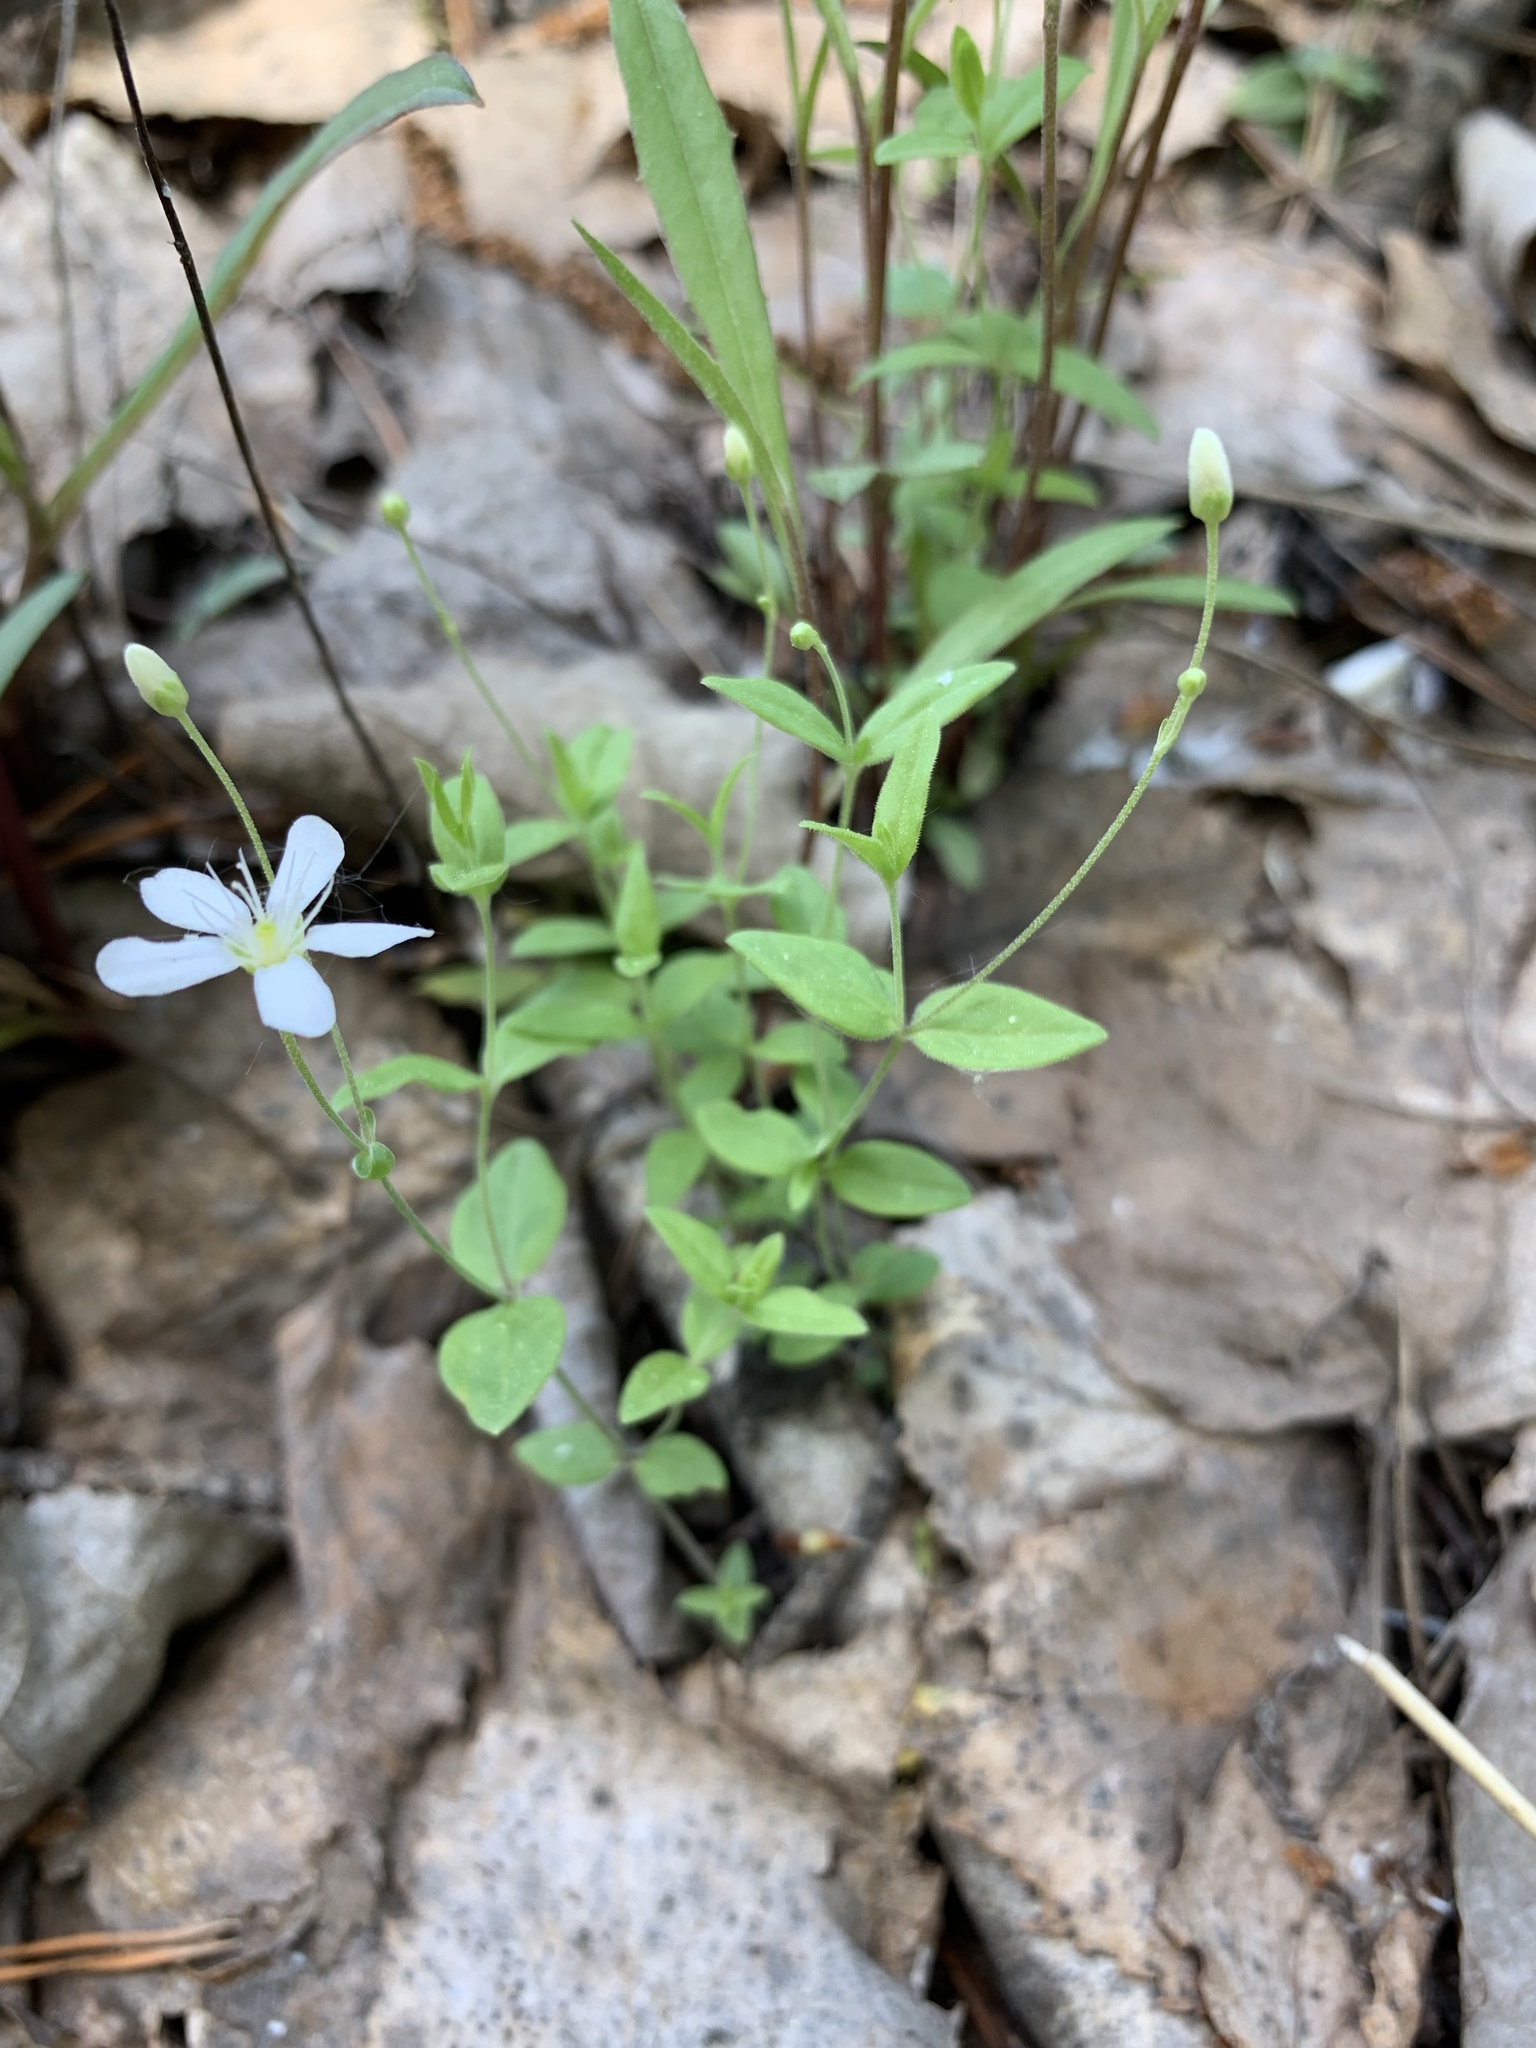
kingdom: Plantae
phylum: Tracheophyta
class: Magnoliopsida
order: Caryophyllales
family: Caryophyllaceae
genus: Moehringia
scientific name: Moehringia lateriflora
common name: Blunt-leaved sandwort
